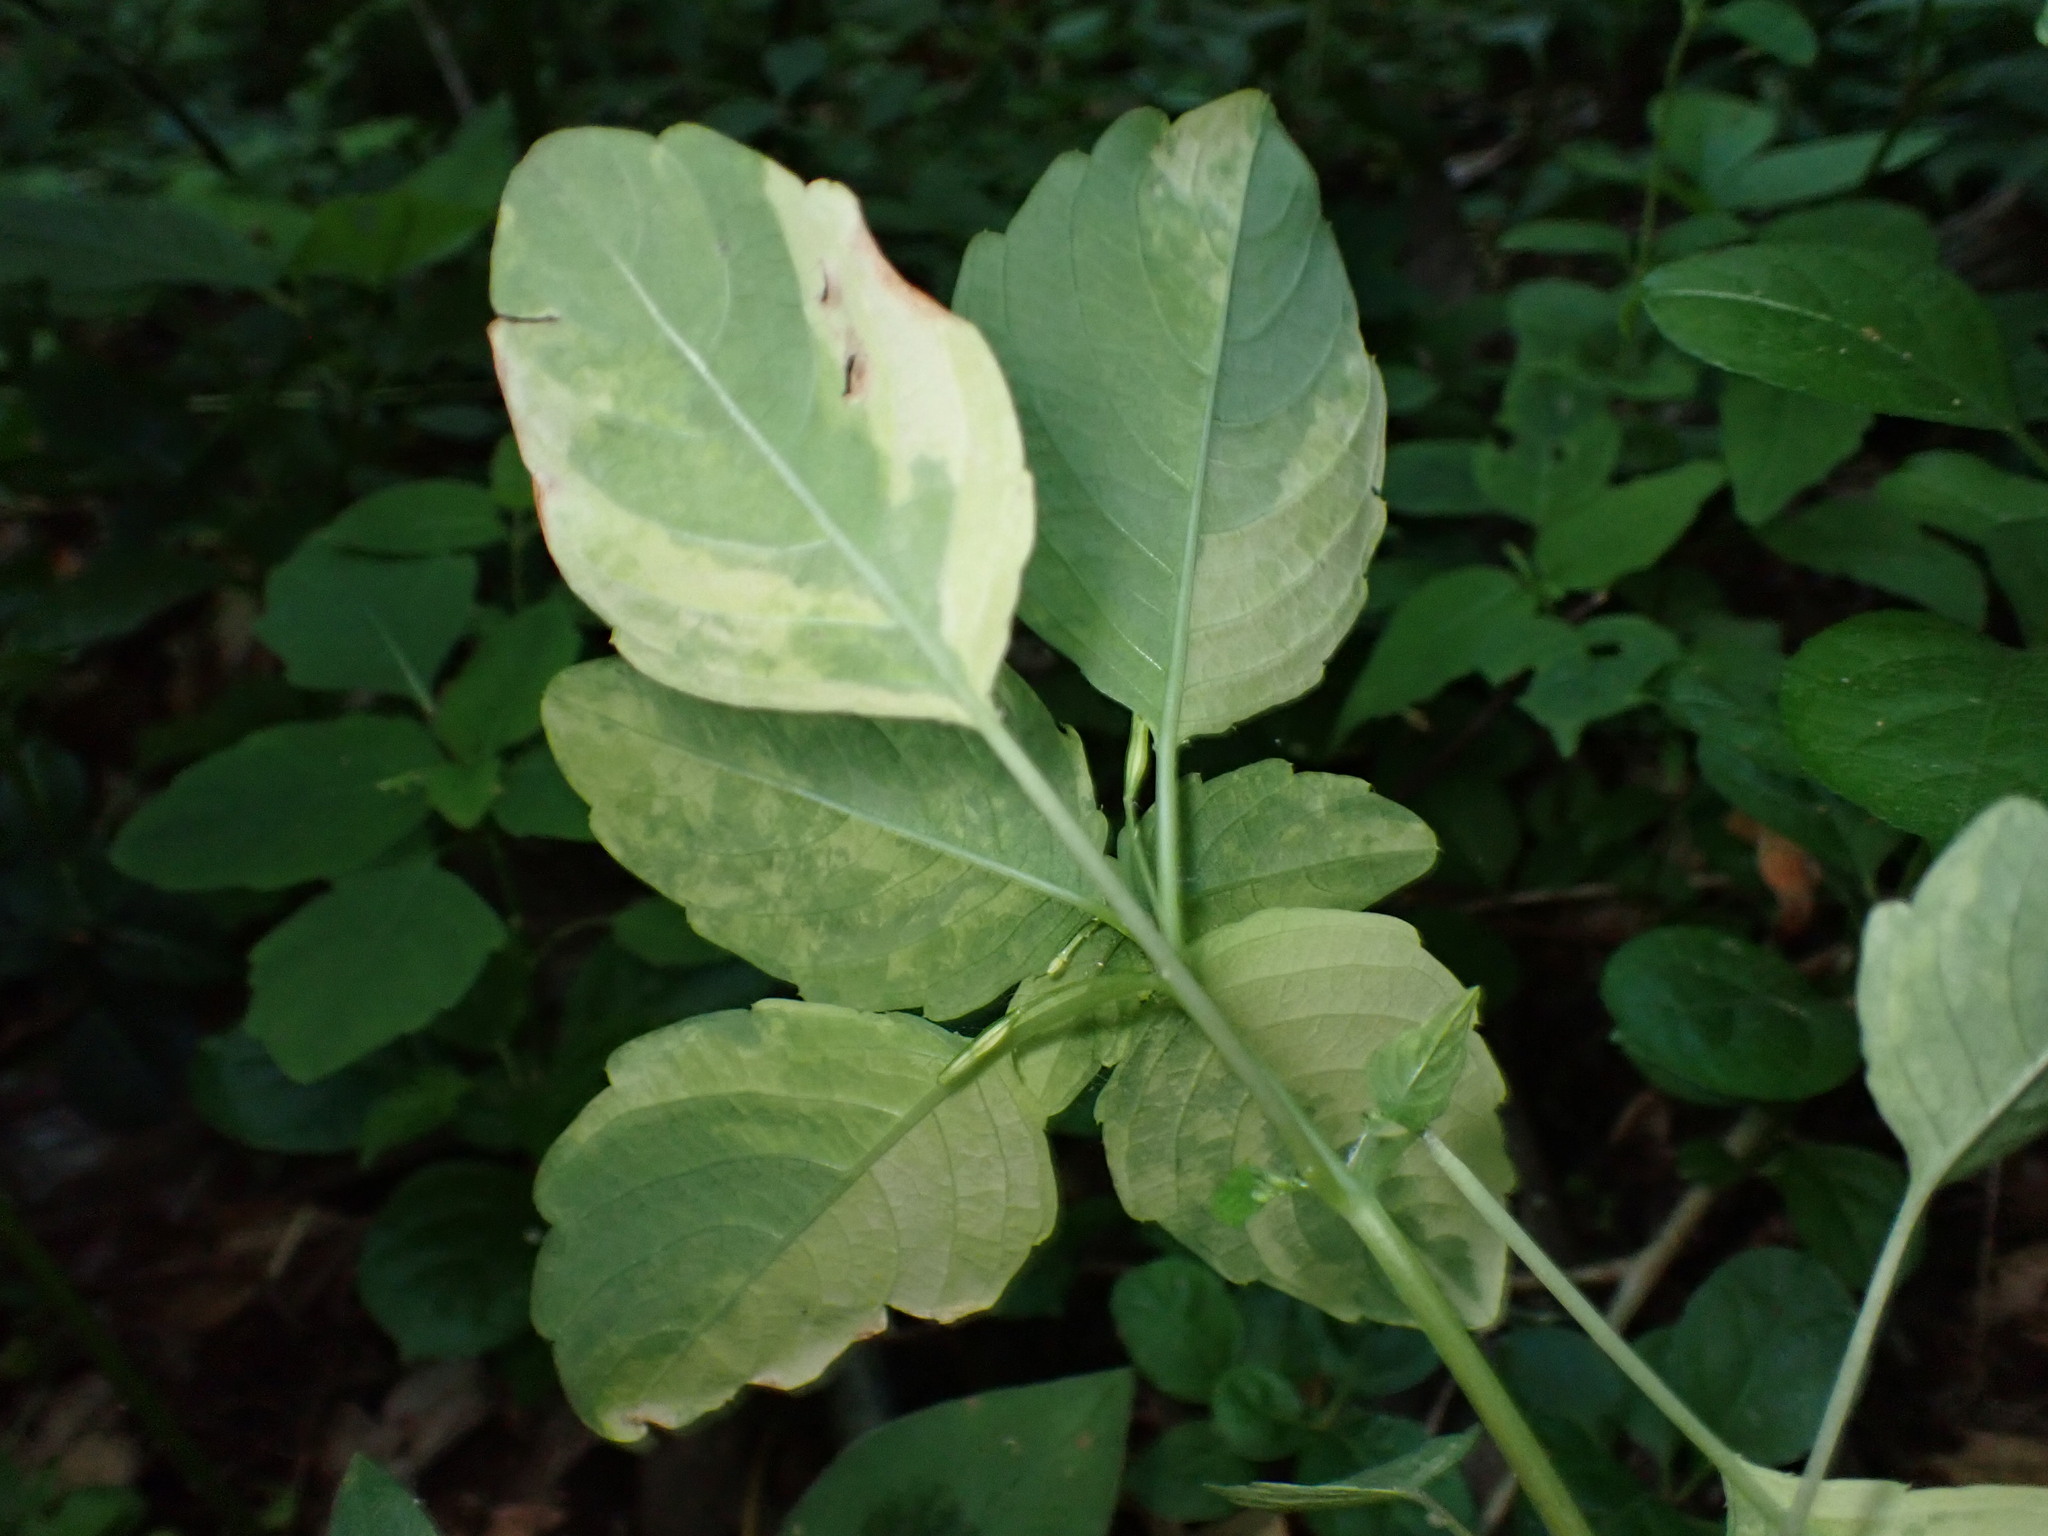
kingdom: Plantae
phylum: Tracheophyta
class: Magnoliopsida
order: Ericales
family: Balsaminaceae
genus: Impatiens
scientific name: Impatiens capensis
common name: Orange balsam
